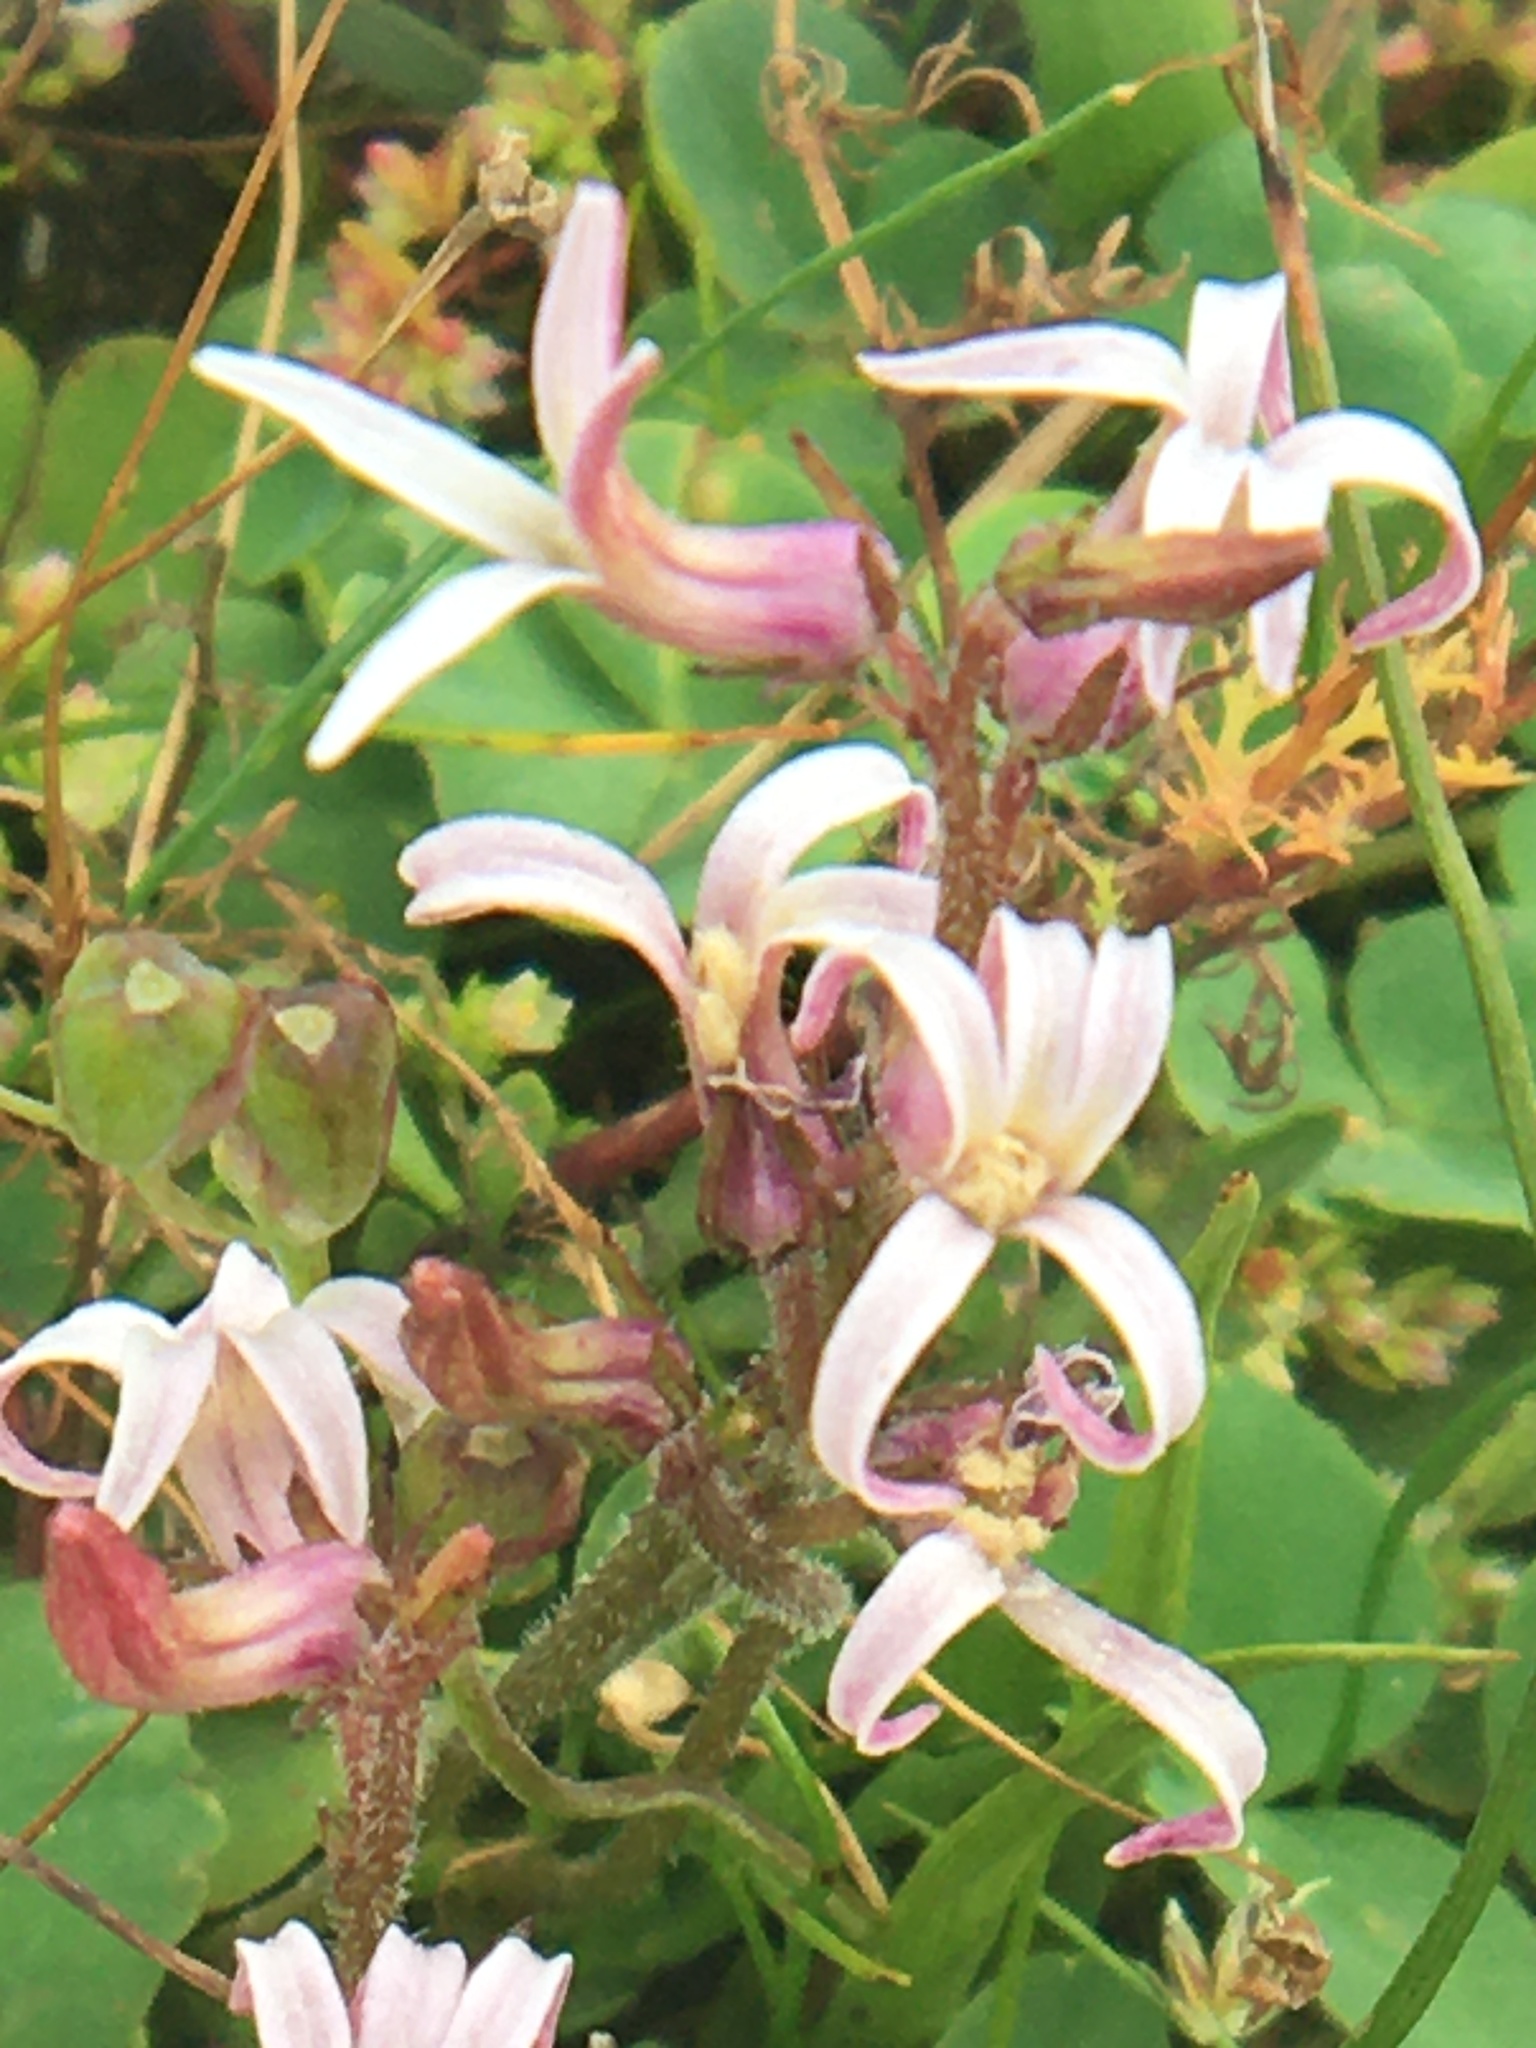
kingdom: Plantae
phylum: Tracheophyta
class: Magnoliopsida
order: Asterales
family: Campanulaceae
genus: Cyphia
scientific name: Cyphia bulbosa
